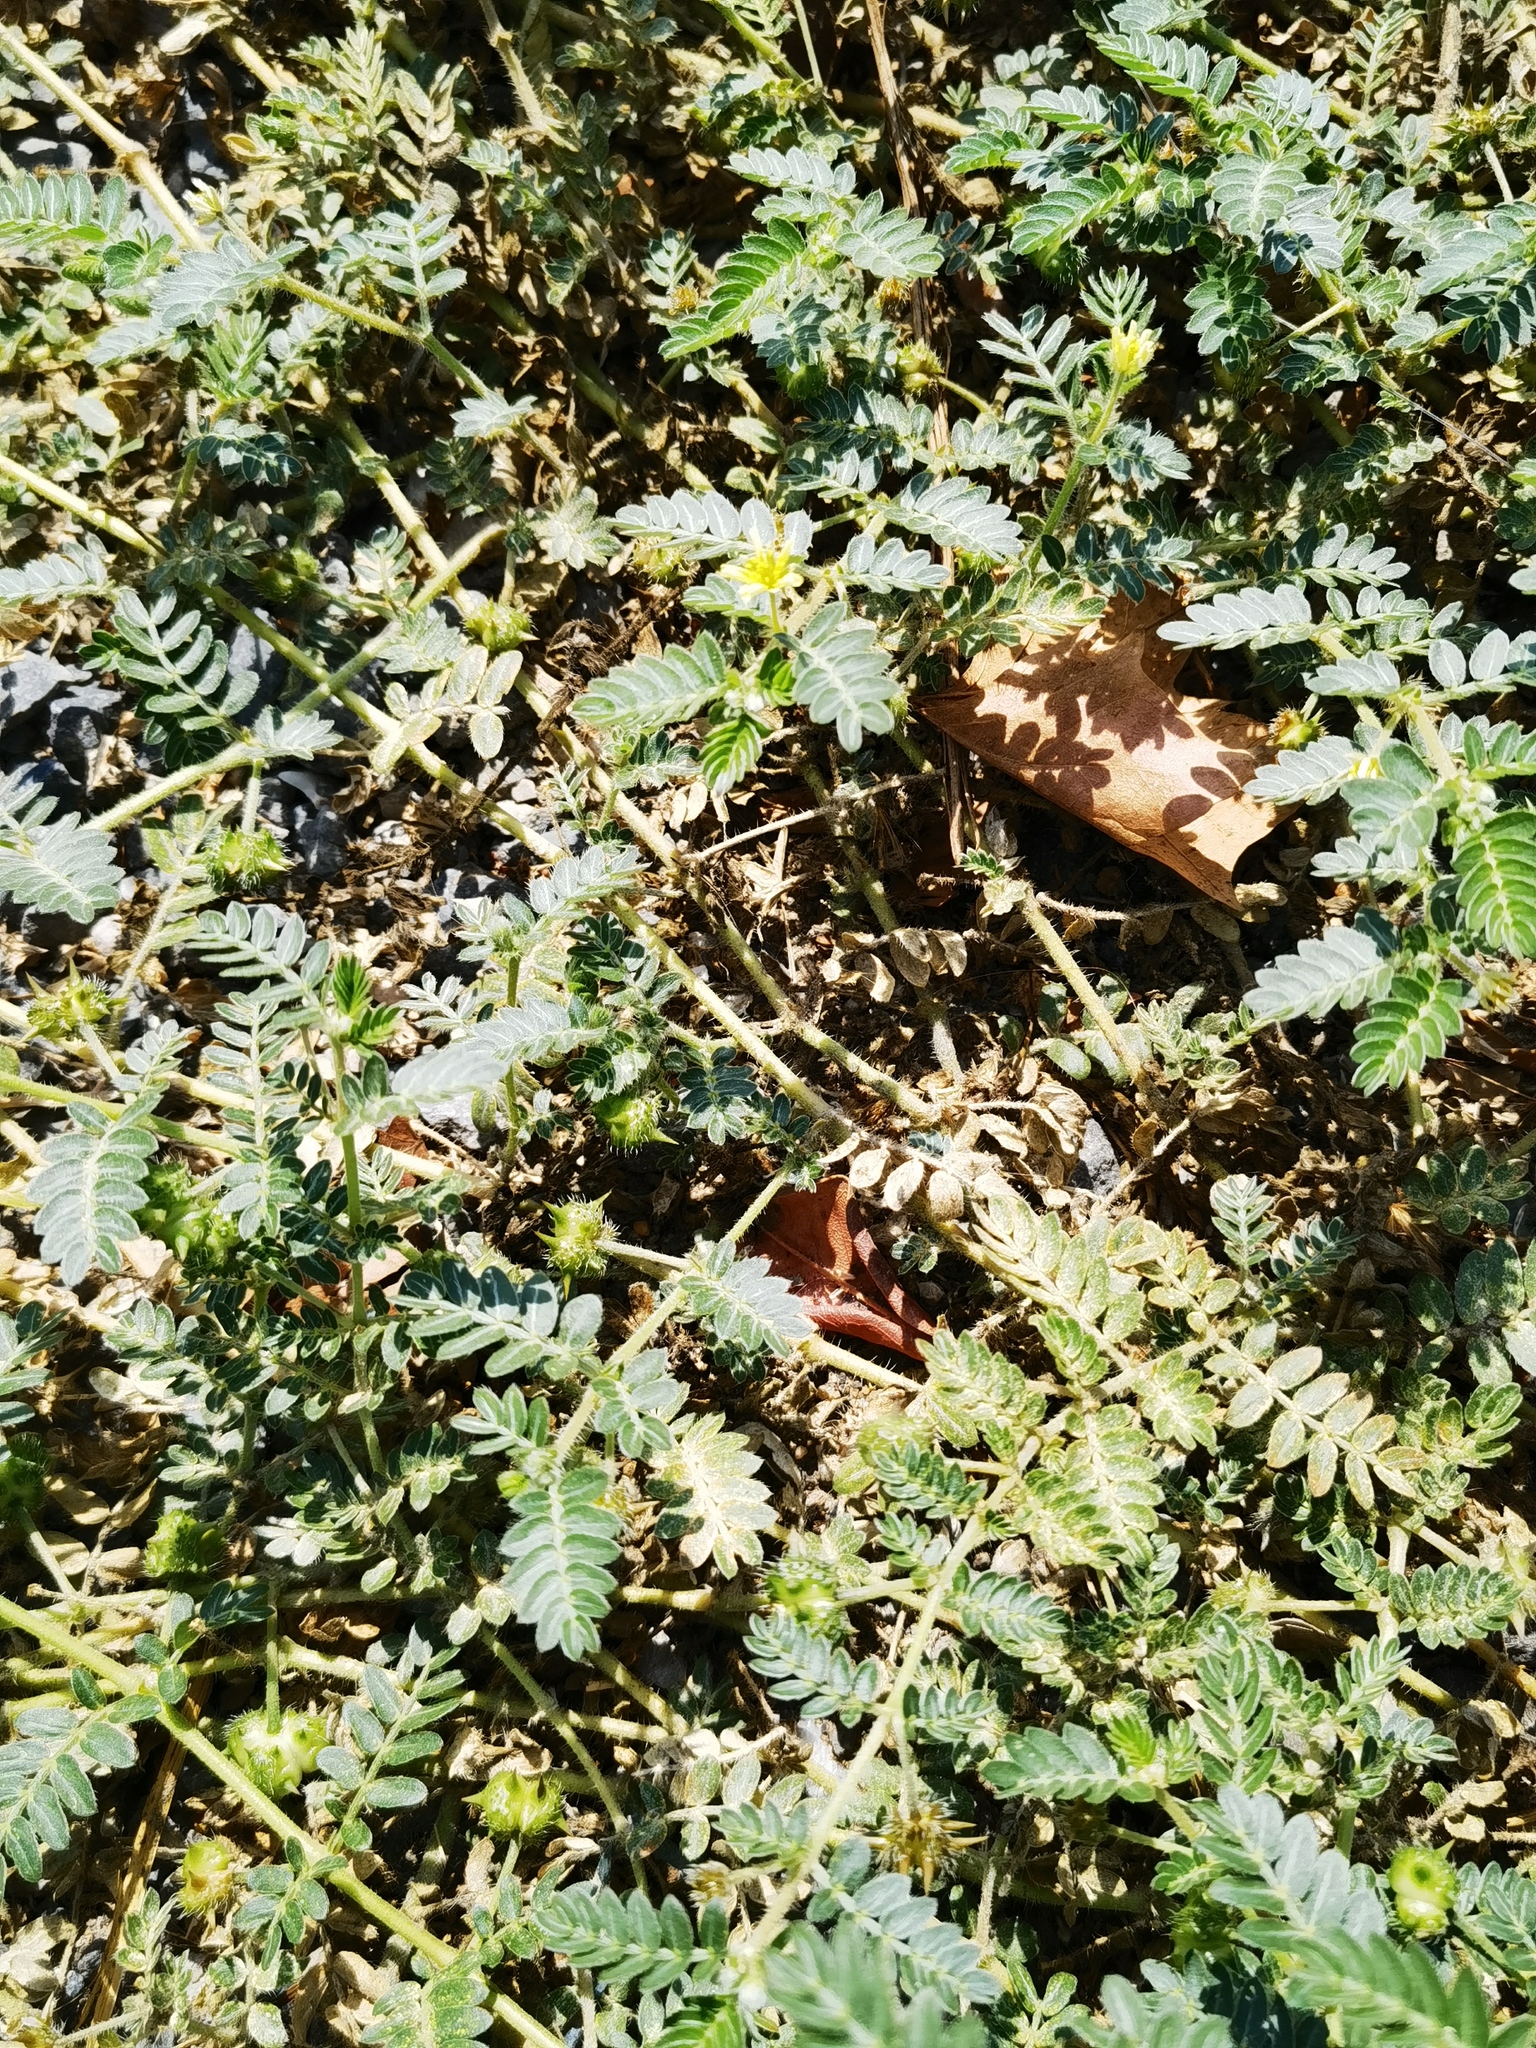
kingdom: Plantae
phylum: Tracheophyta
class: Magnoliopsida
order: Zygophyllales
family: Zygophyllaceae
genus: Tribulus
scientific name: Tribulus terrestris
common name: Puncturevine
